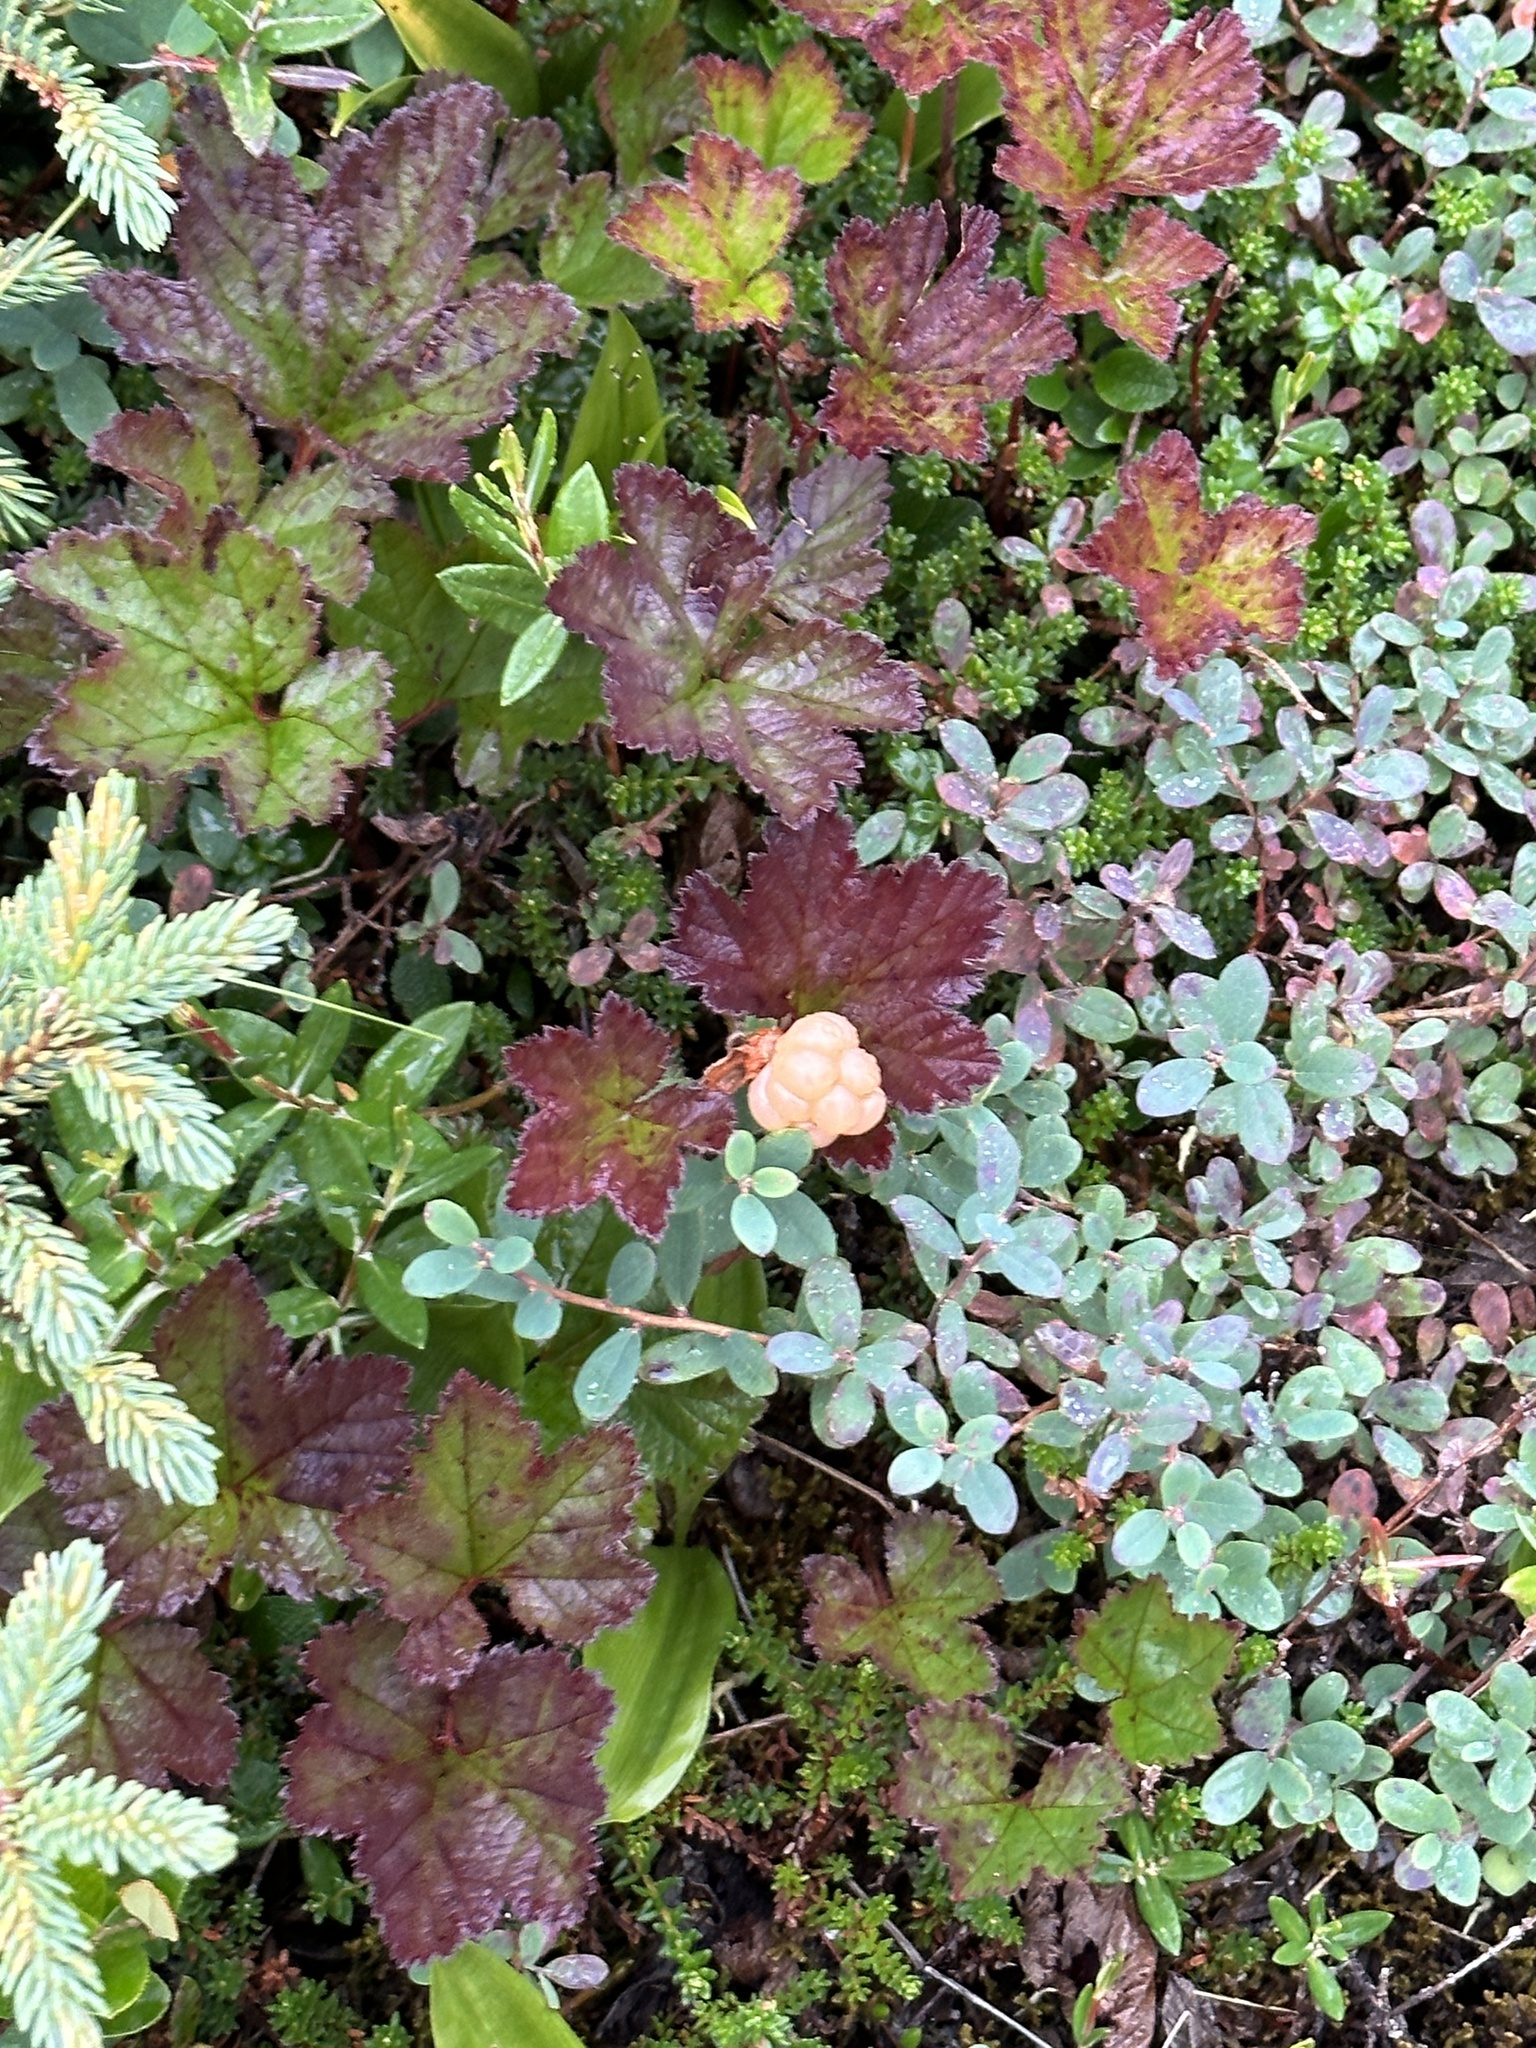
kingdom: Plantae
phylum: Tracheophyta
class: Magnoliopsida
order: Rosales
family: Rosaceae
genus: Rubus
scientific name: Rubus chamaemorus
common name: Cloudberry
